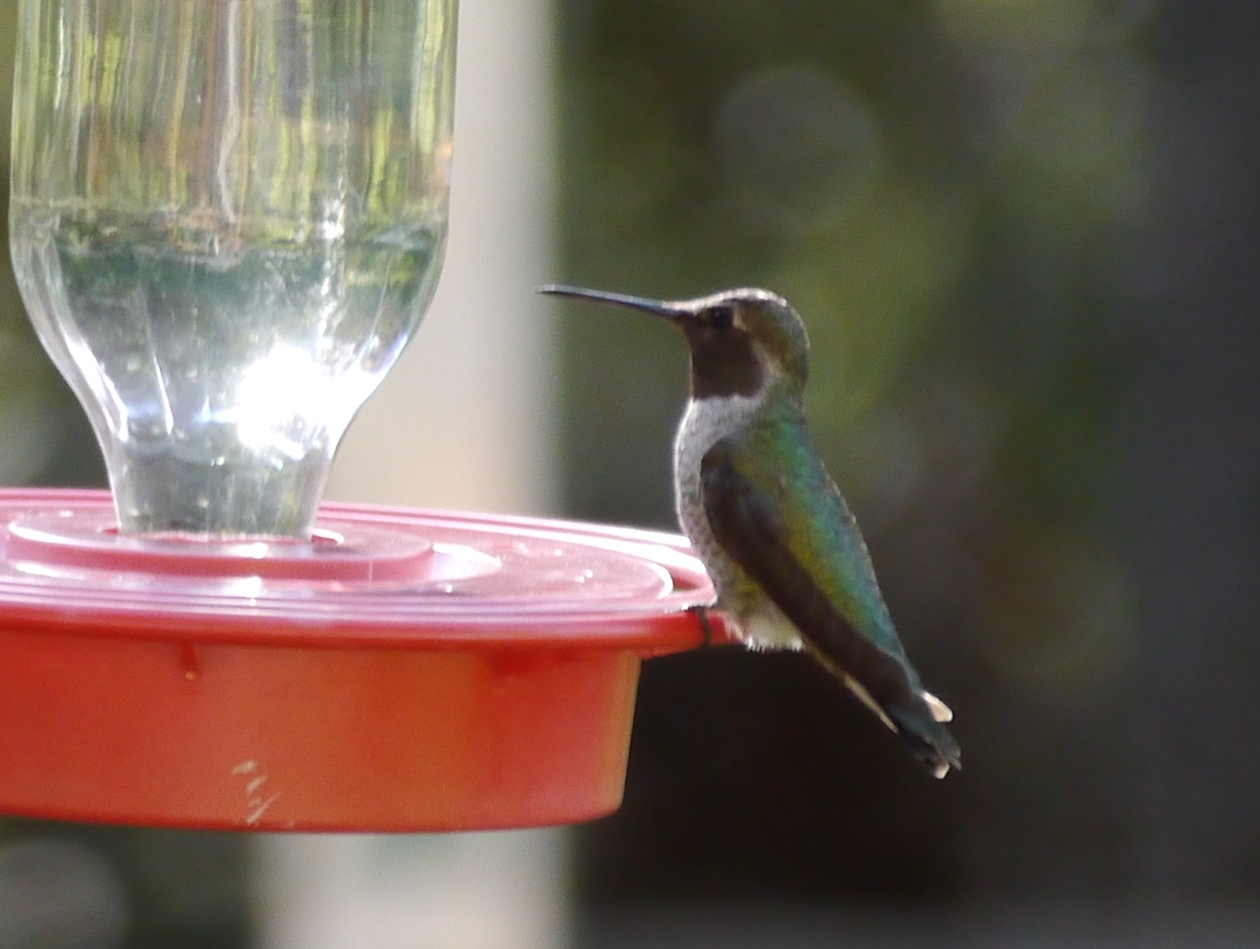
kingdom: Animalia
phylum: Chordata
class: Aves
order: Apodiformes
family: Trochilidae
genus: Selasphorus
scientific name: Selasphorus platycercus
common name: Broad-tailed hummingbird
